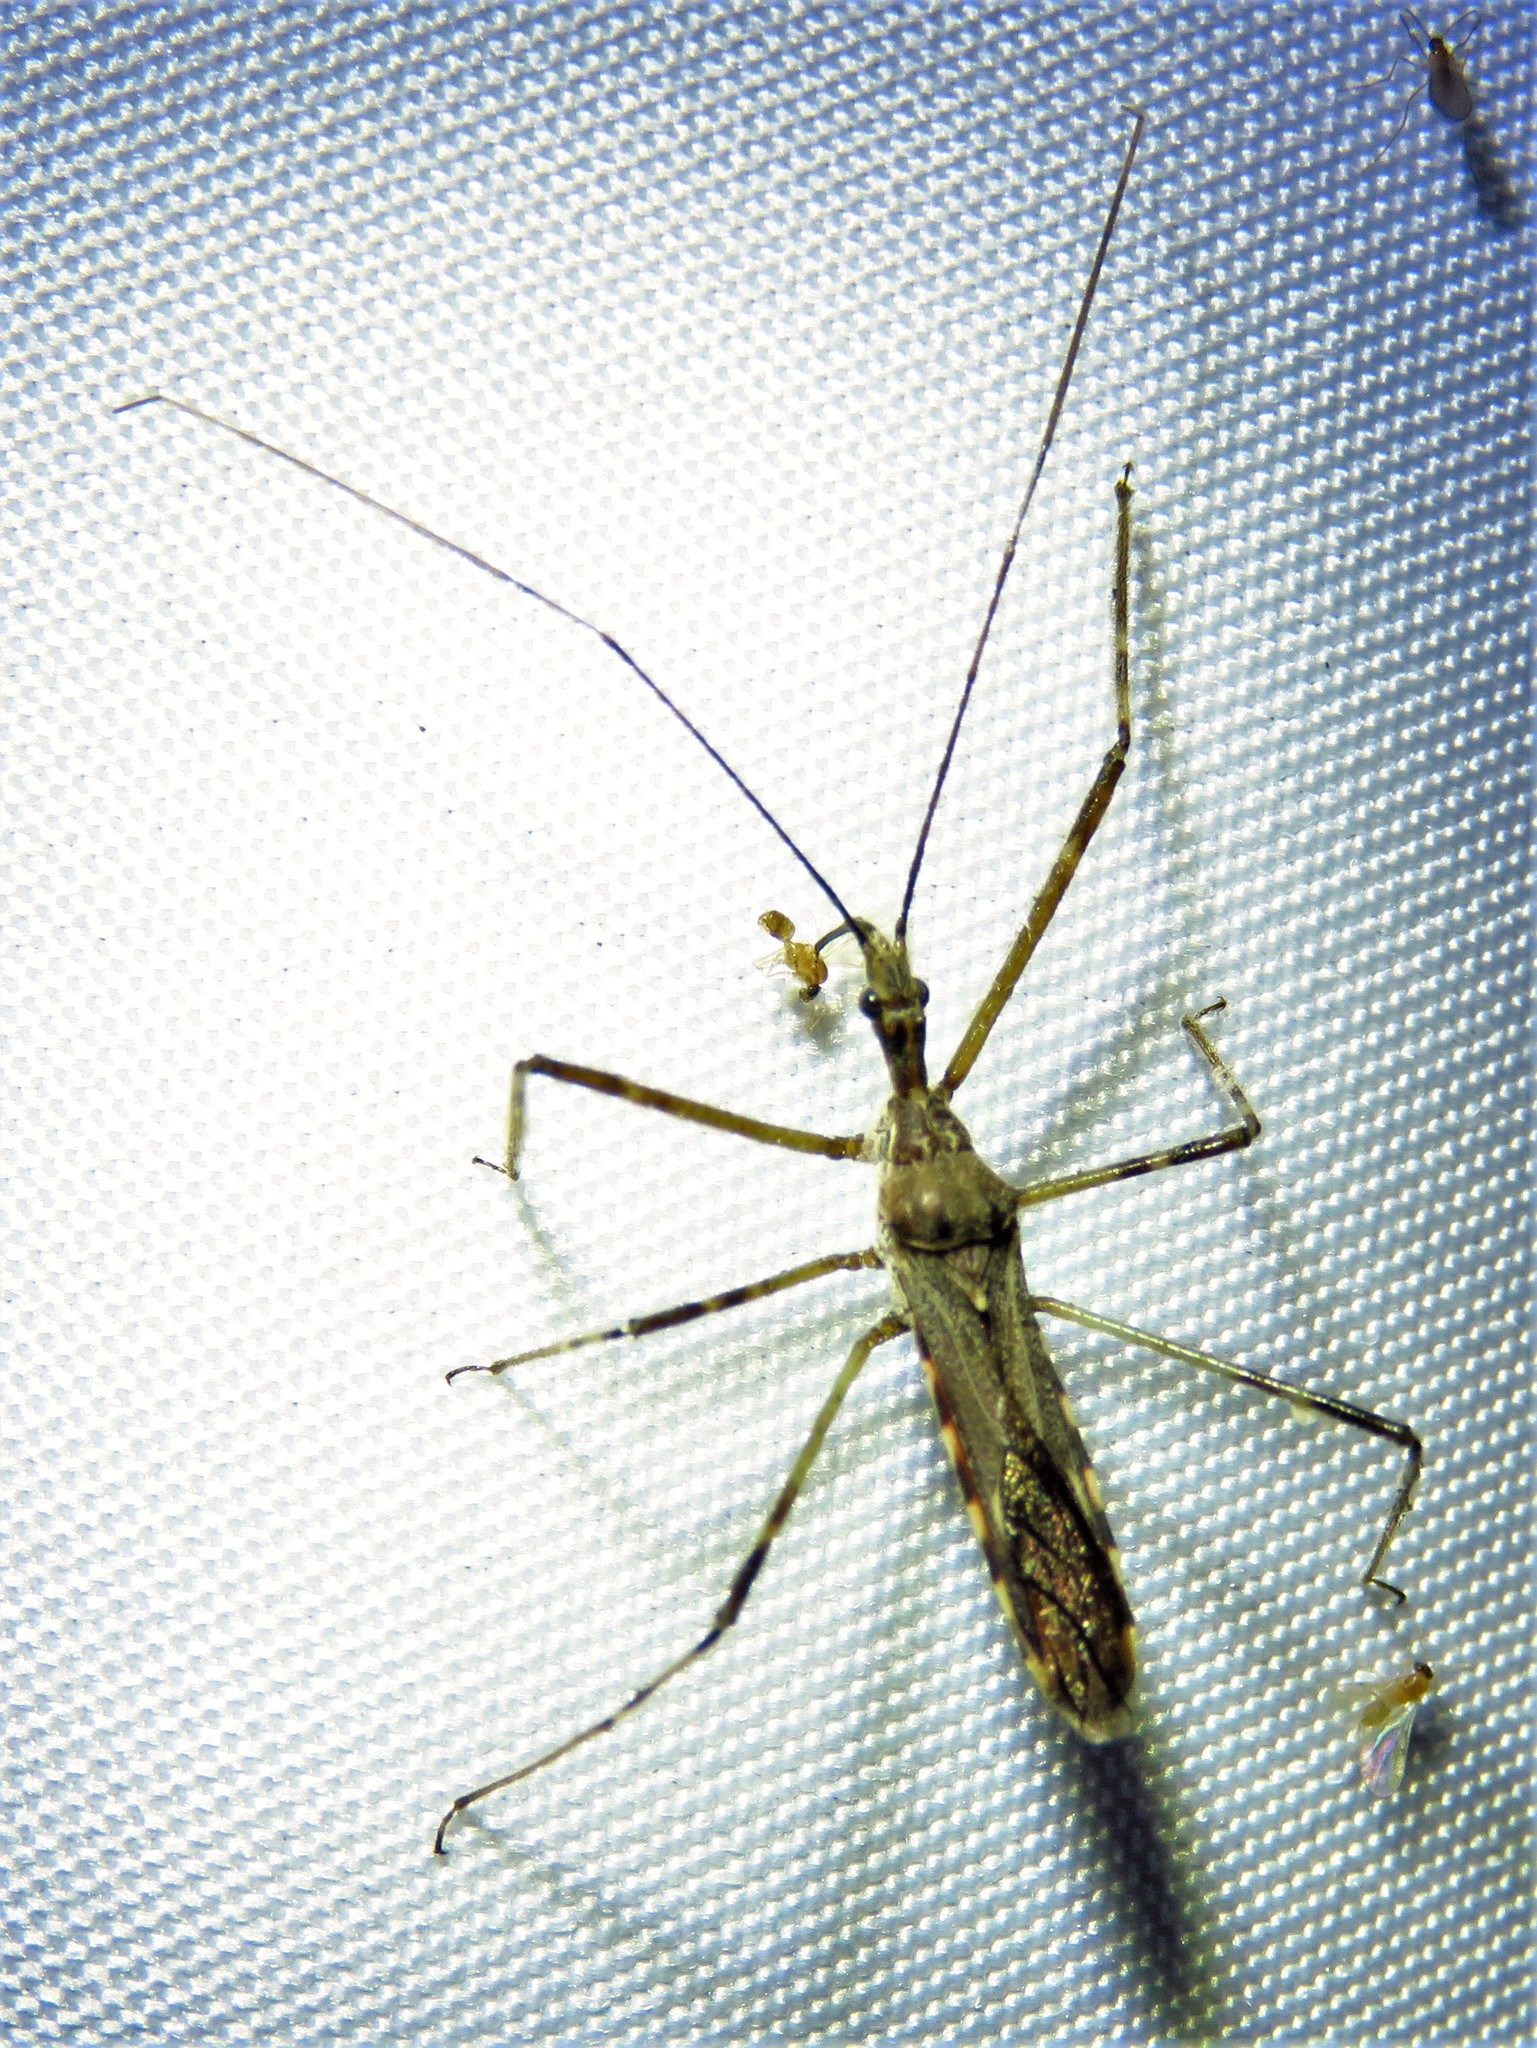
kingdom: Animalia
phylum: Arthropoda
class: Insecta
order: Hemiptera
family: Reduviidae
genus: Zelus
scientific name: Zelus tetracanthus
